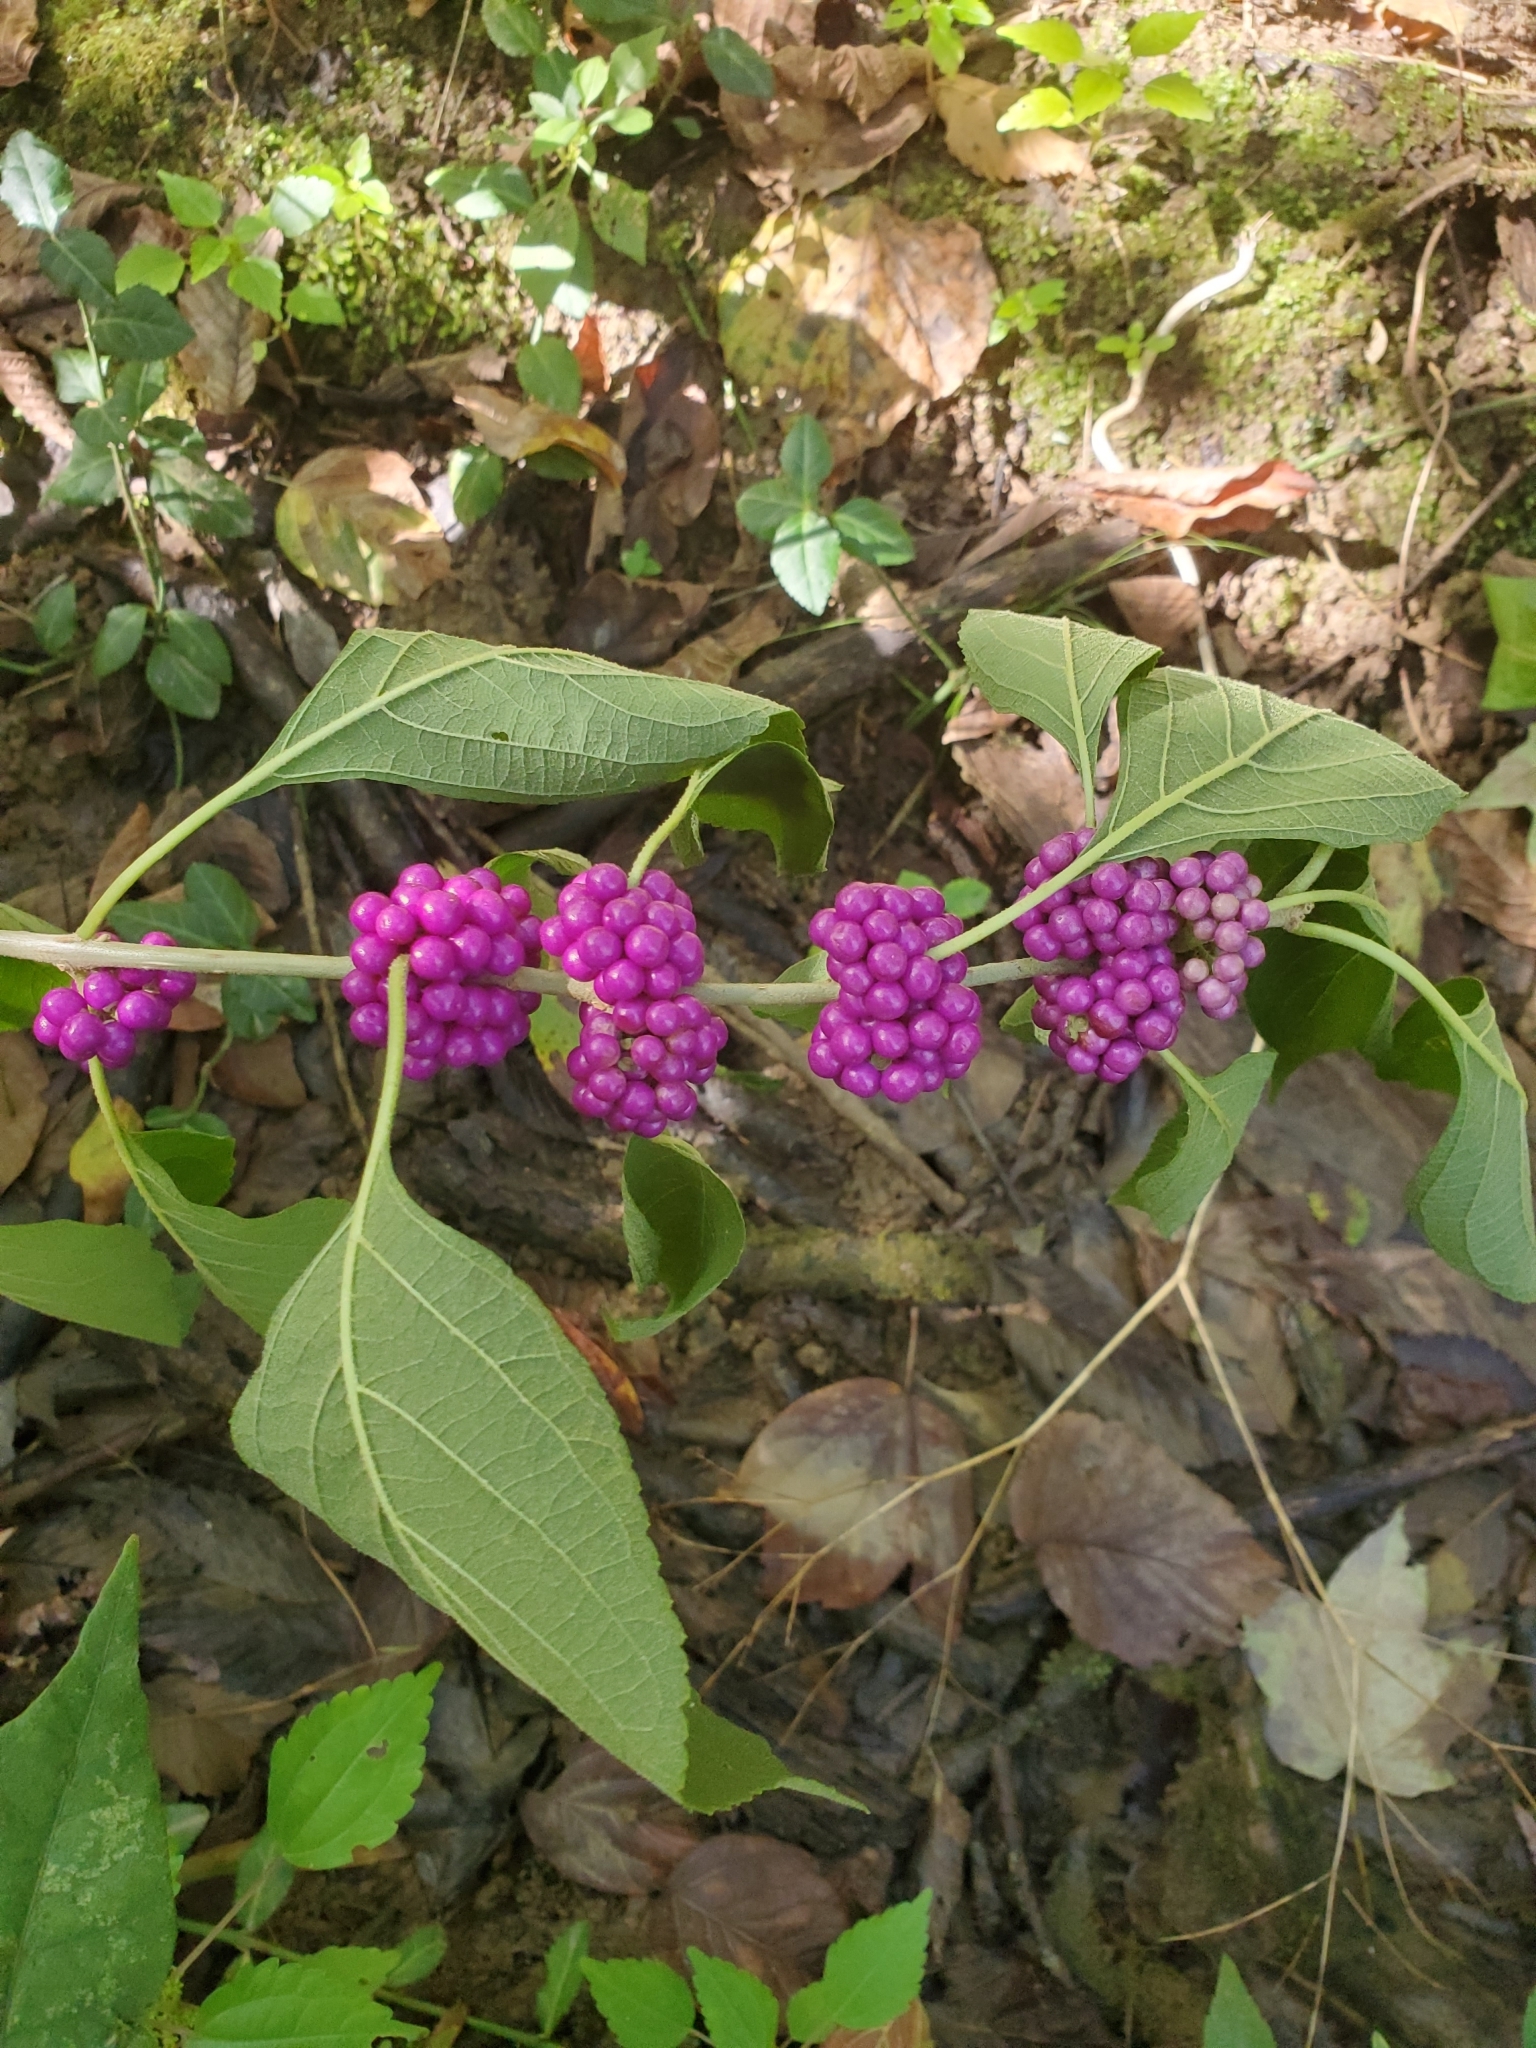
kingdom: Plantae
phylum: Tracheophyta
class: Magnoliopsida
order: Lamiales
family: Lamiaceae
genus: Callicarpa
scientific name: Callicarpa americana
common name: American beautyberry
